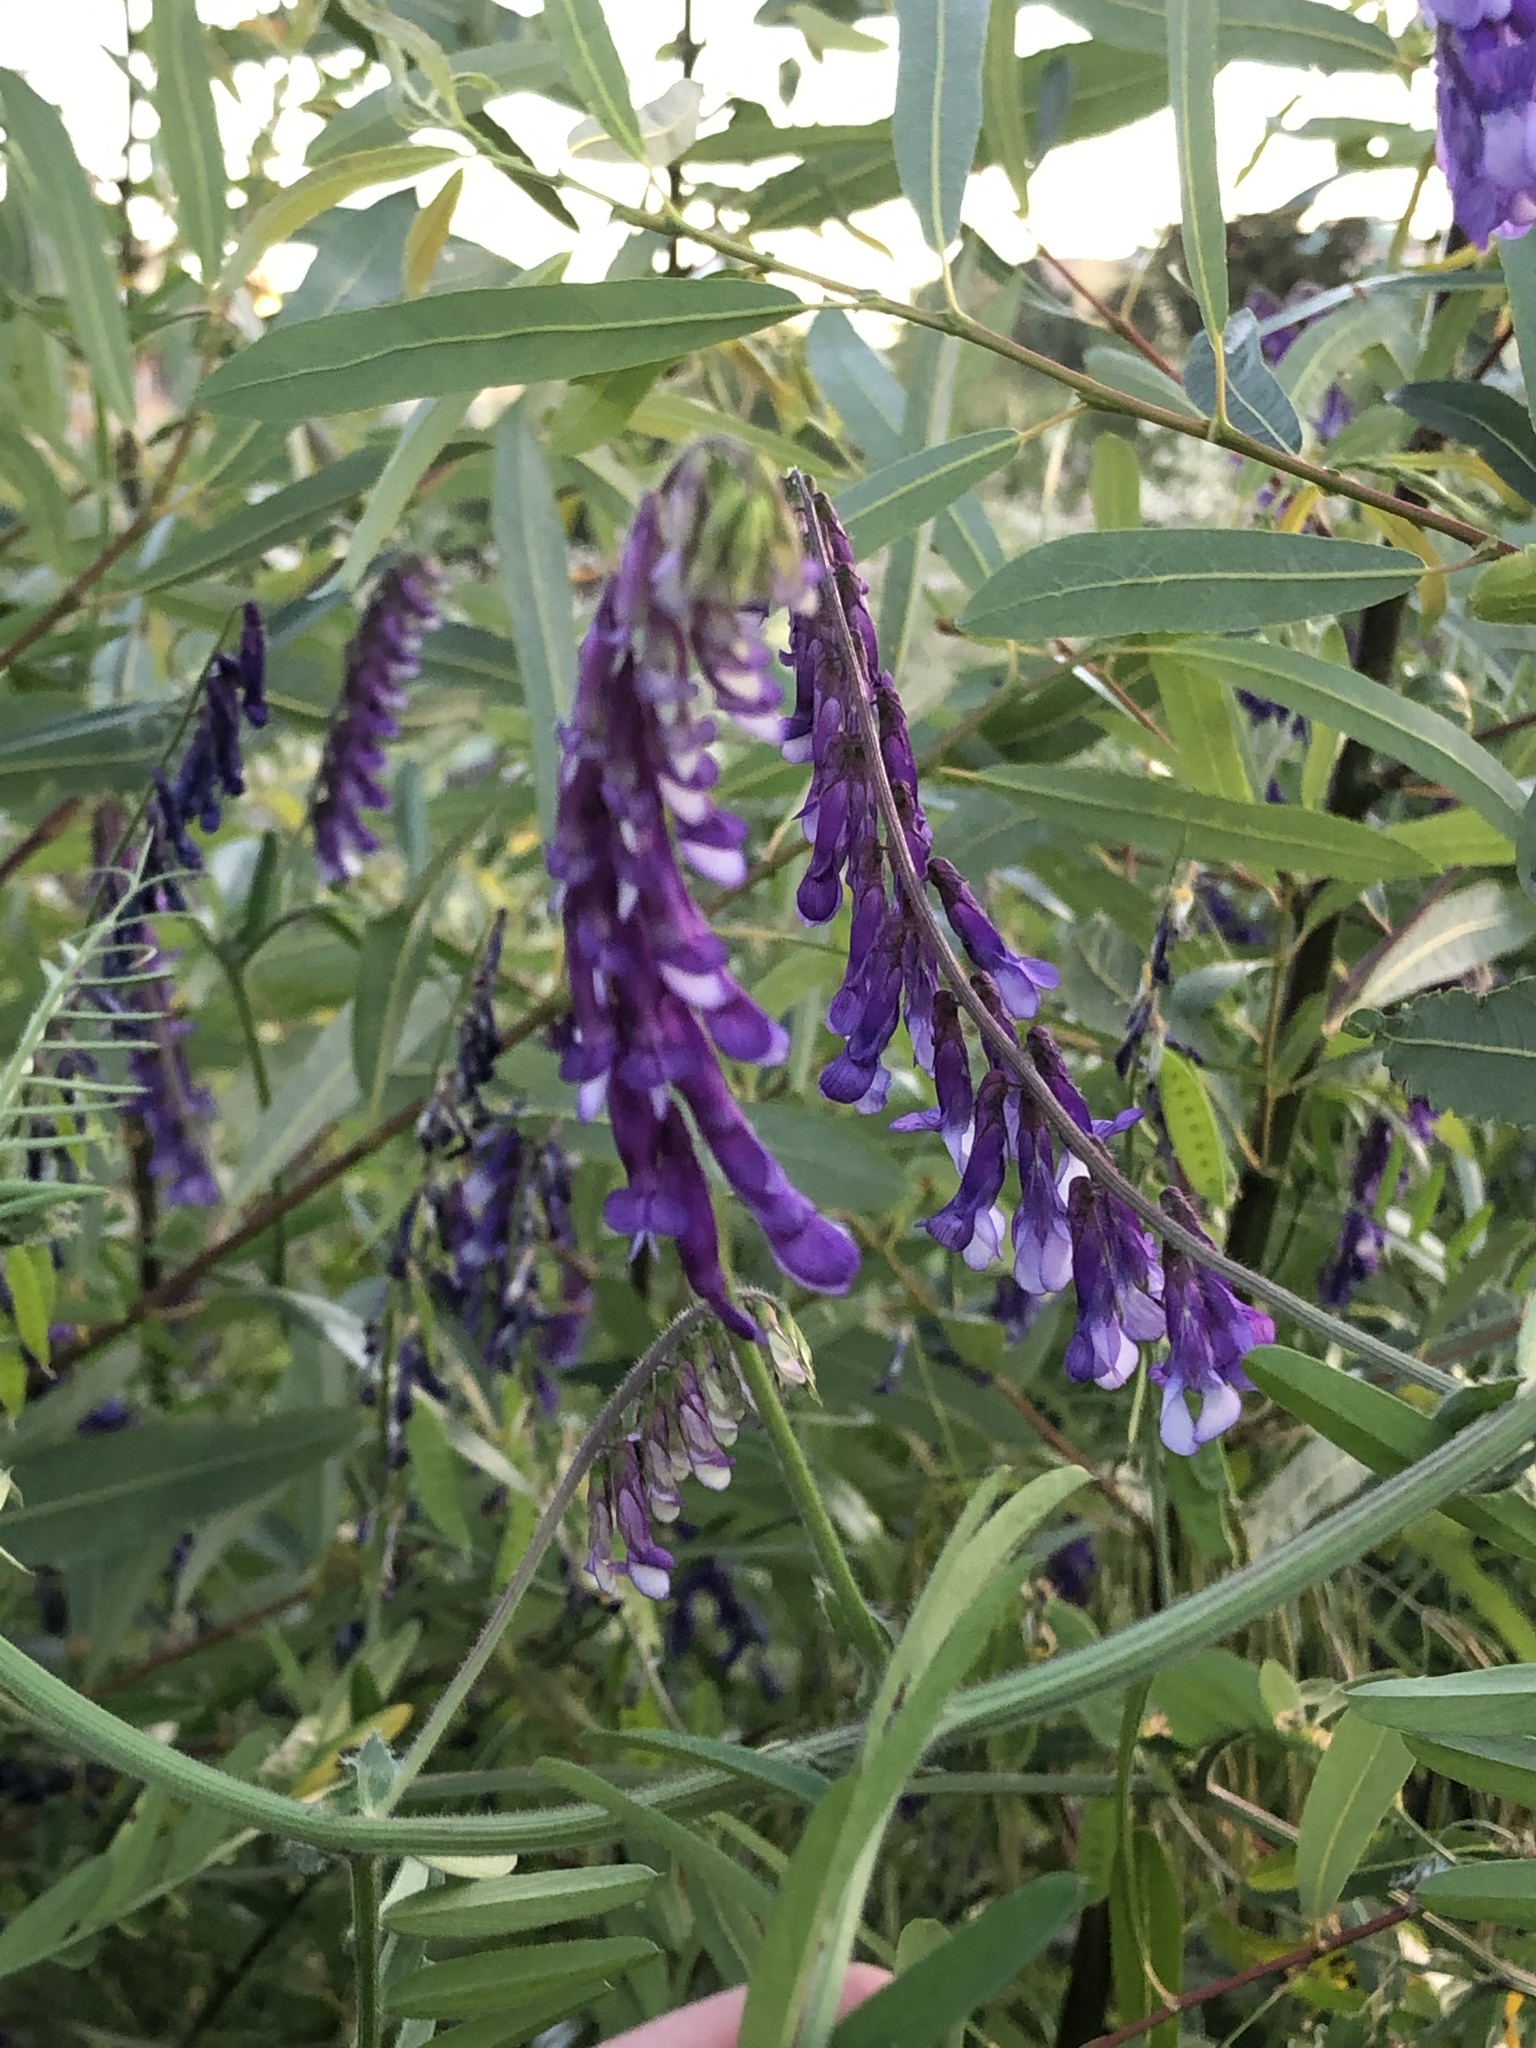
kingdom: Plantae
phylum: Tracheophyta
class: Magnoliopsida
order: Fabales
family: Fabaceae
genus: Vicia
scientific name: Vicia villosa
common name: Fodder vetch
